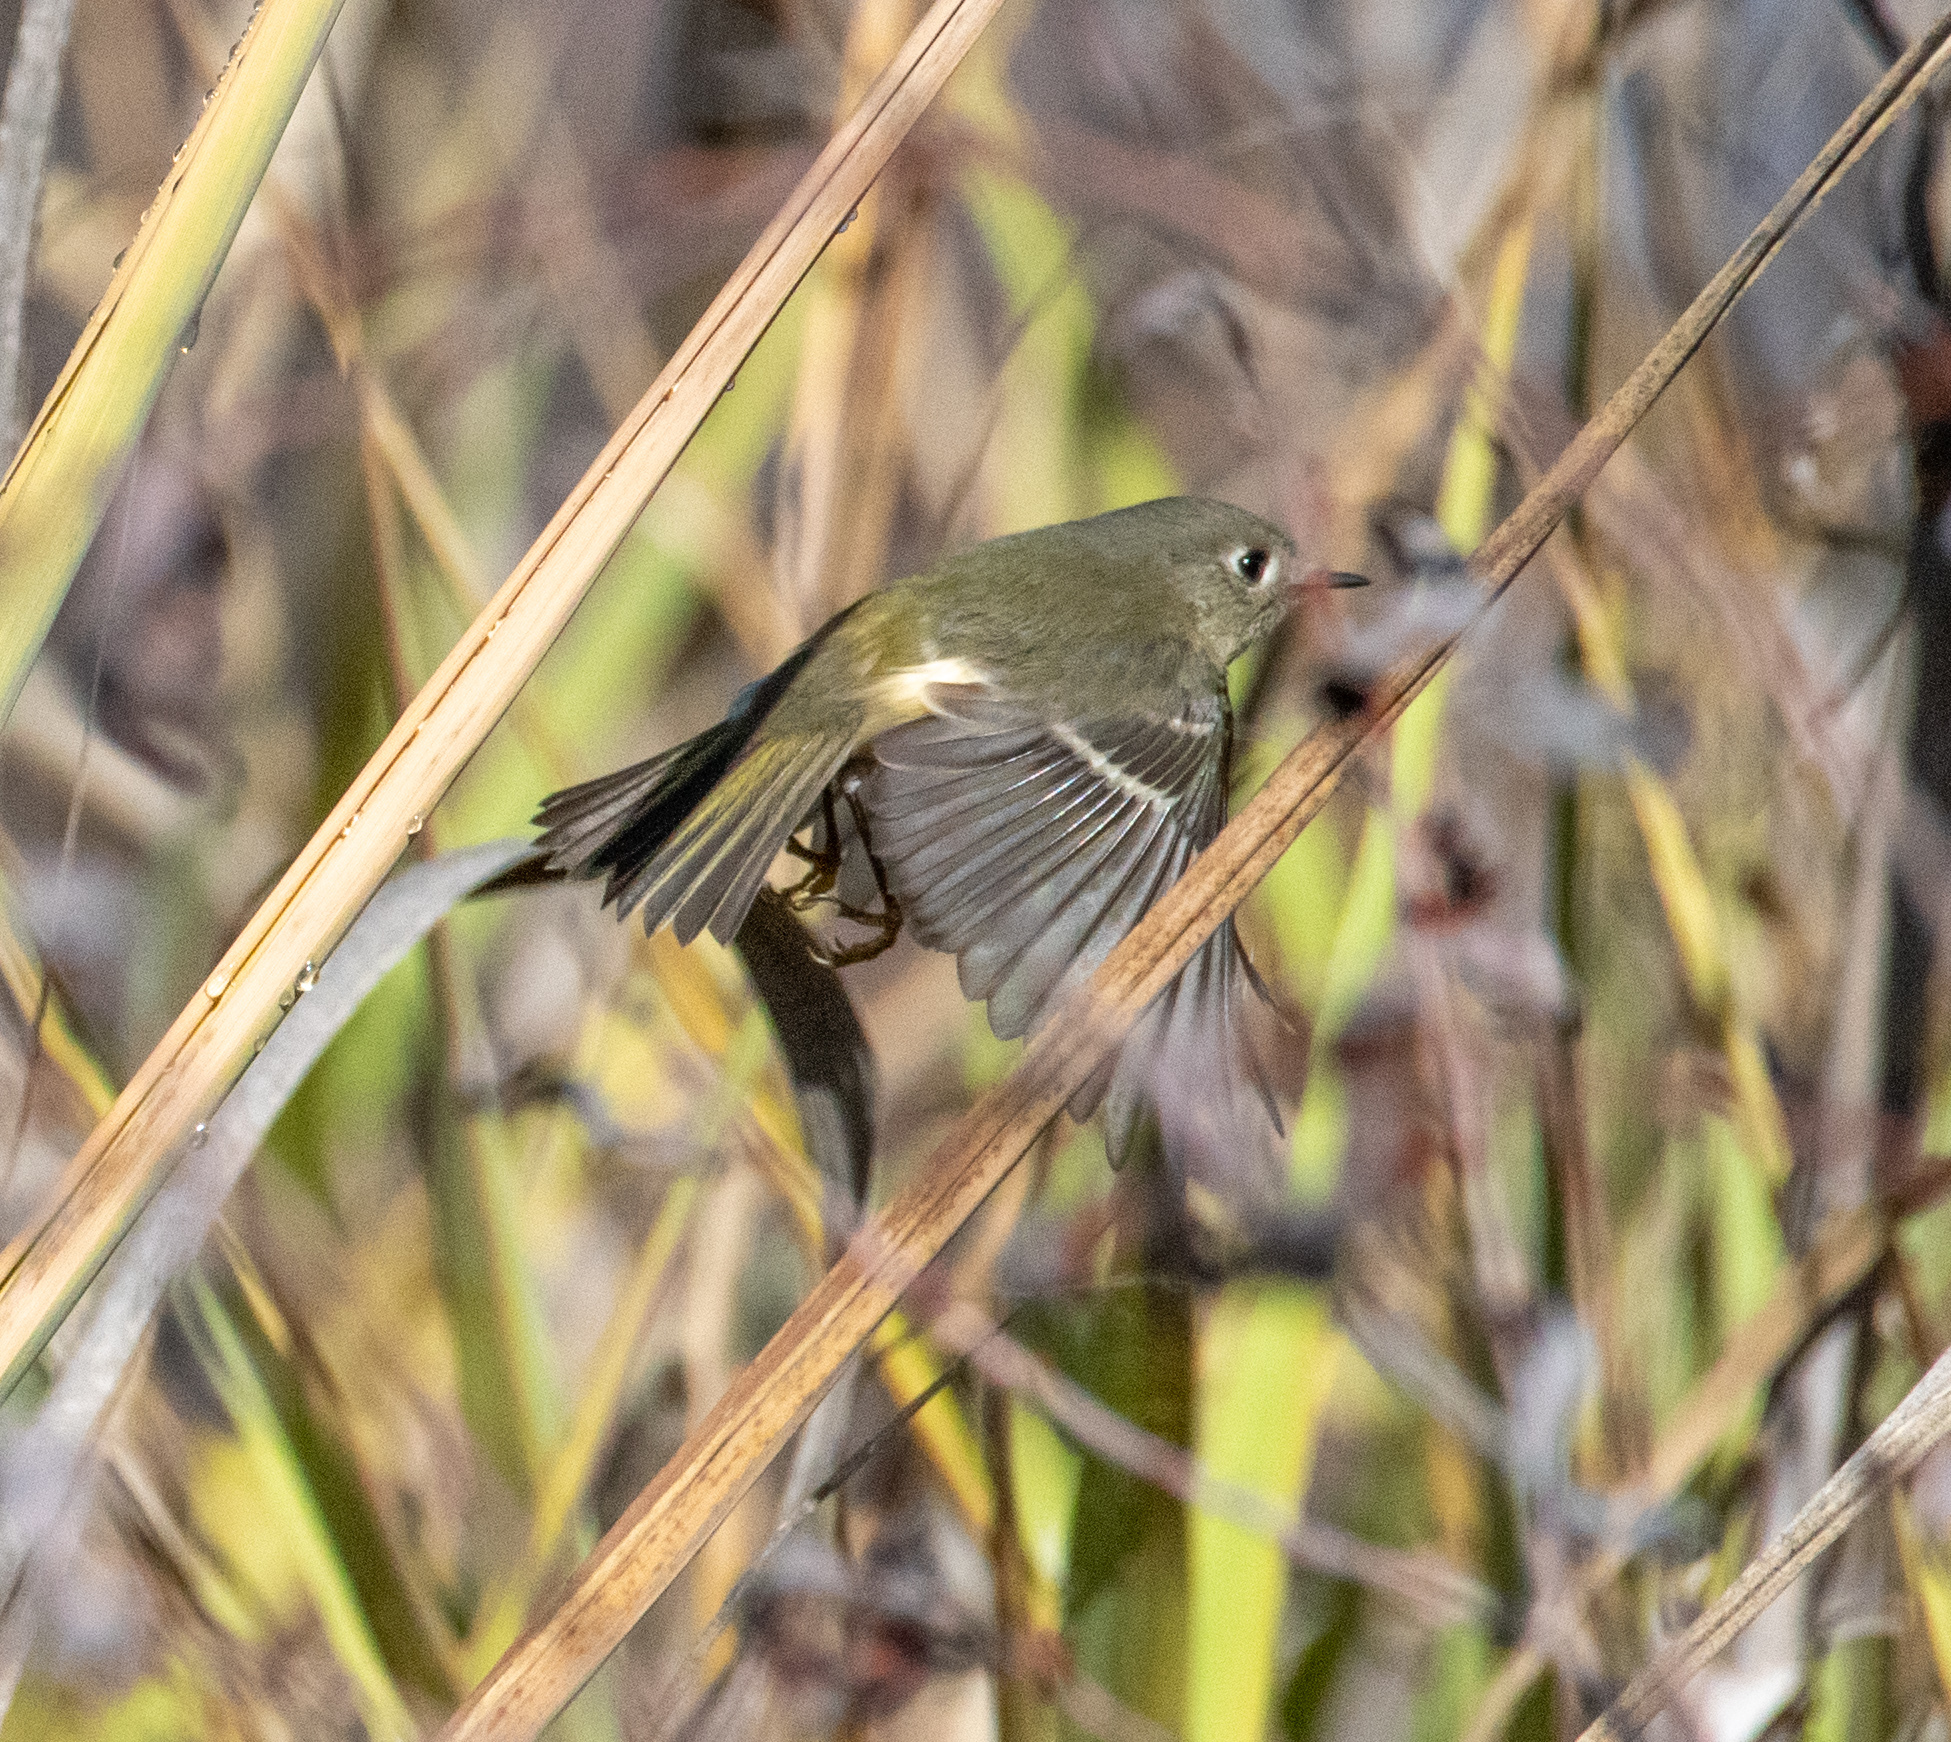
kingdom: Animalia
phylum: Chordata
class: Aves
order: Passeriformes
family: Regulidae
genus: Regulus
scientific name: Regulus calendula
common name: Ruby-crowned kinglet
